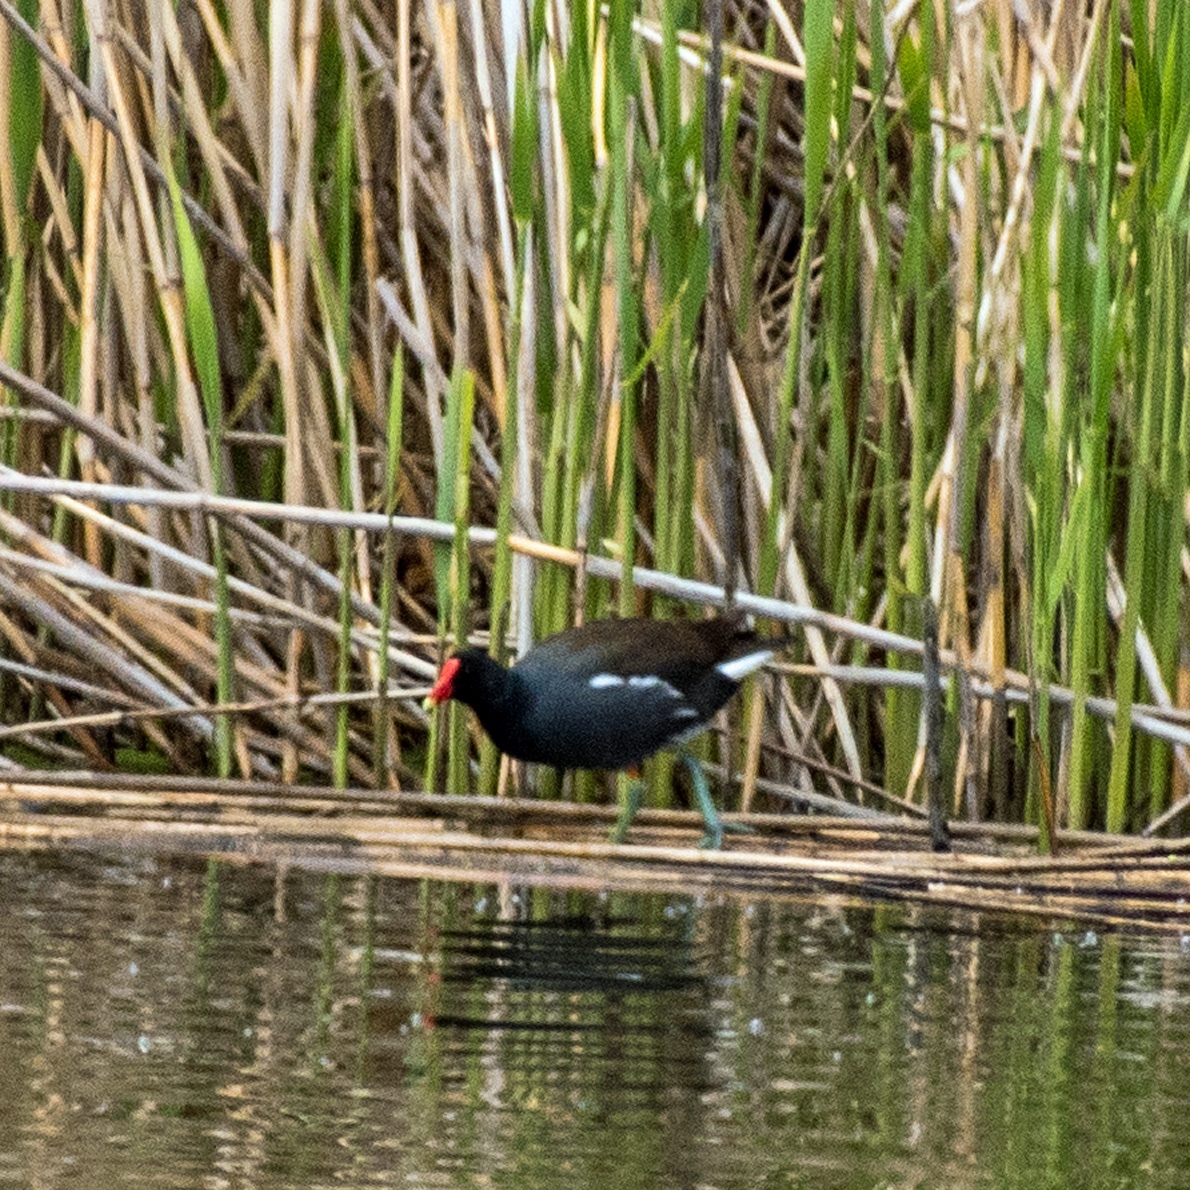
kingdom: Animalia
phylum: Chordata
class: Aves
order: Gruiformes
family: Rallidae
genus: Gallinula
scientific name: Gallinula chloropus
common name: Common moorhen
